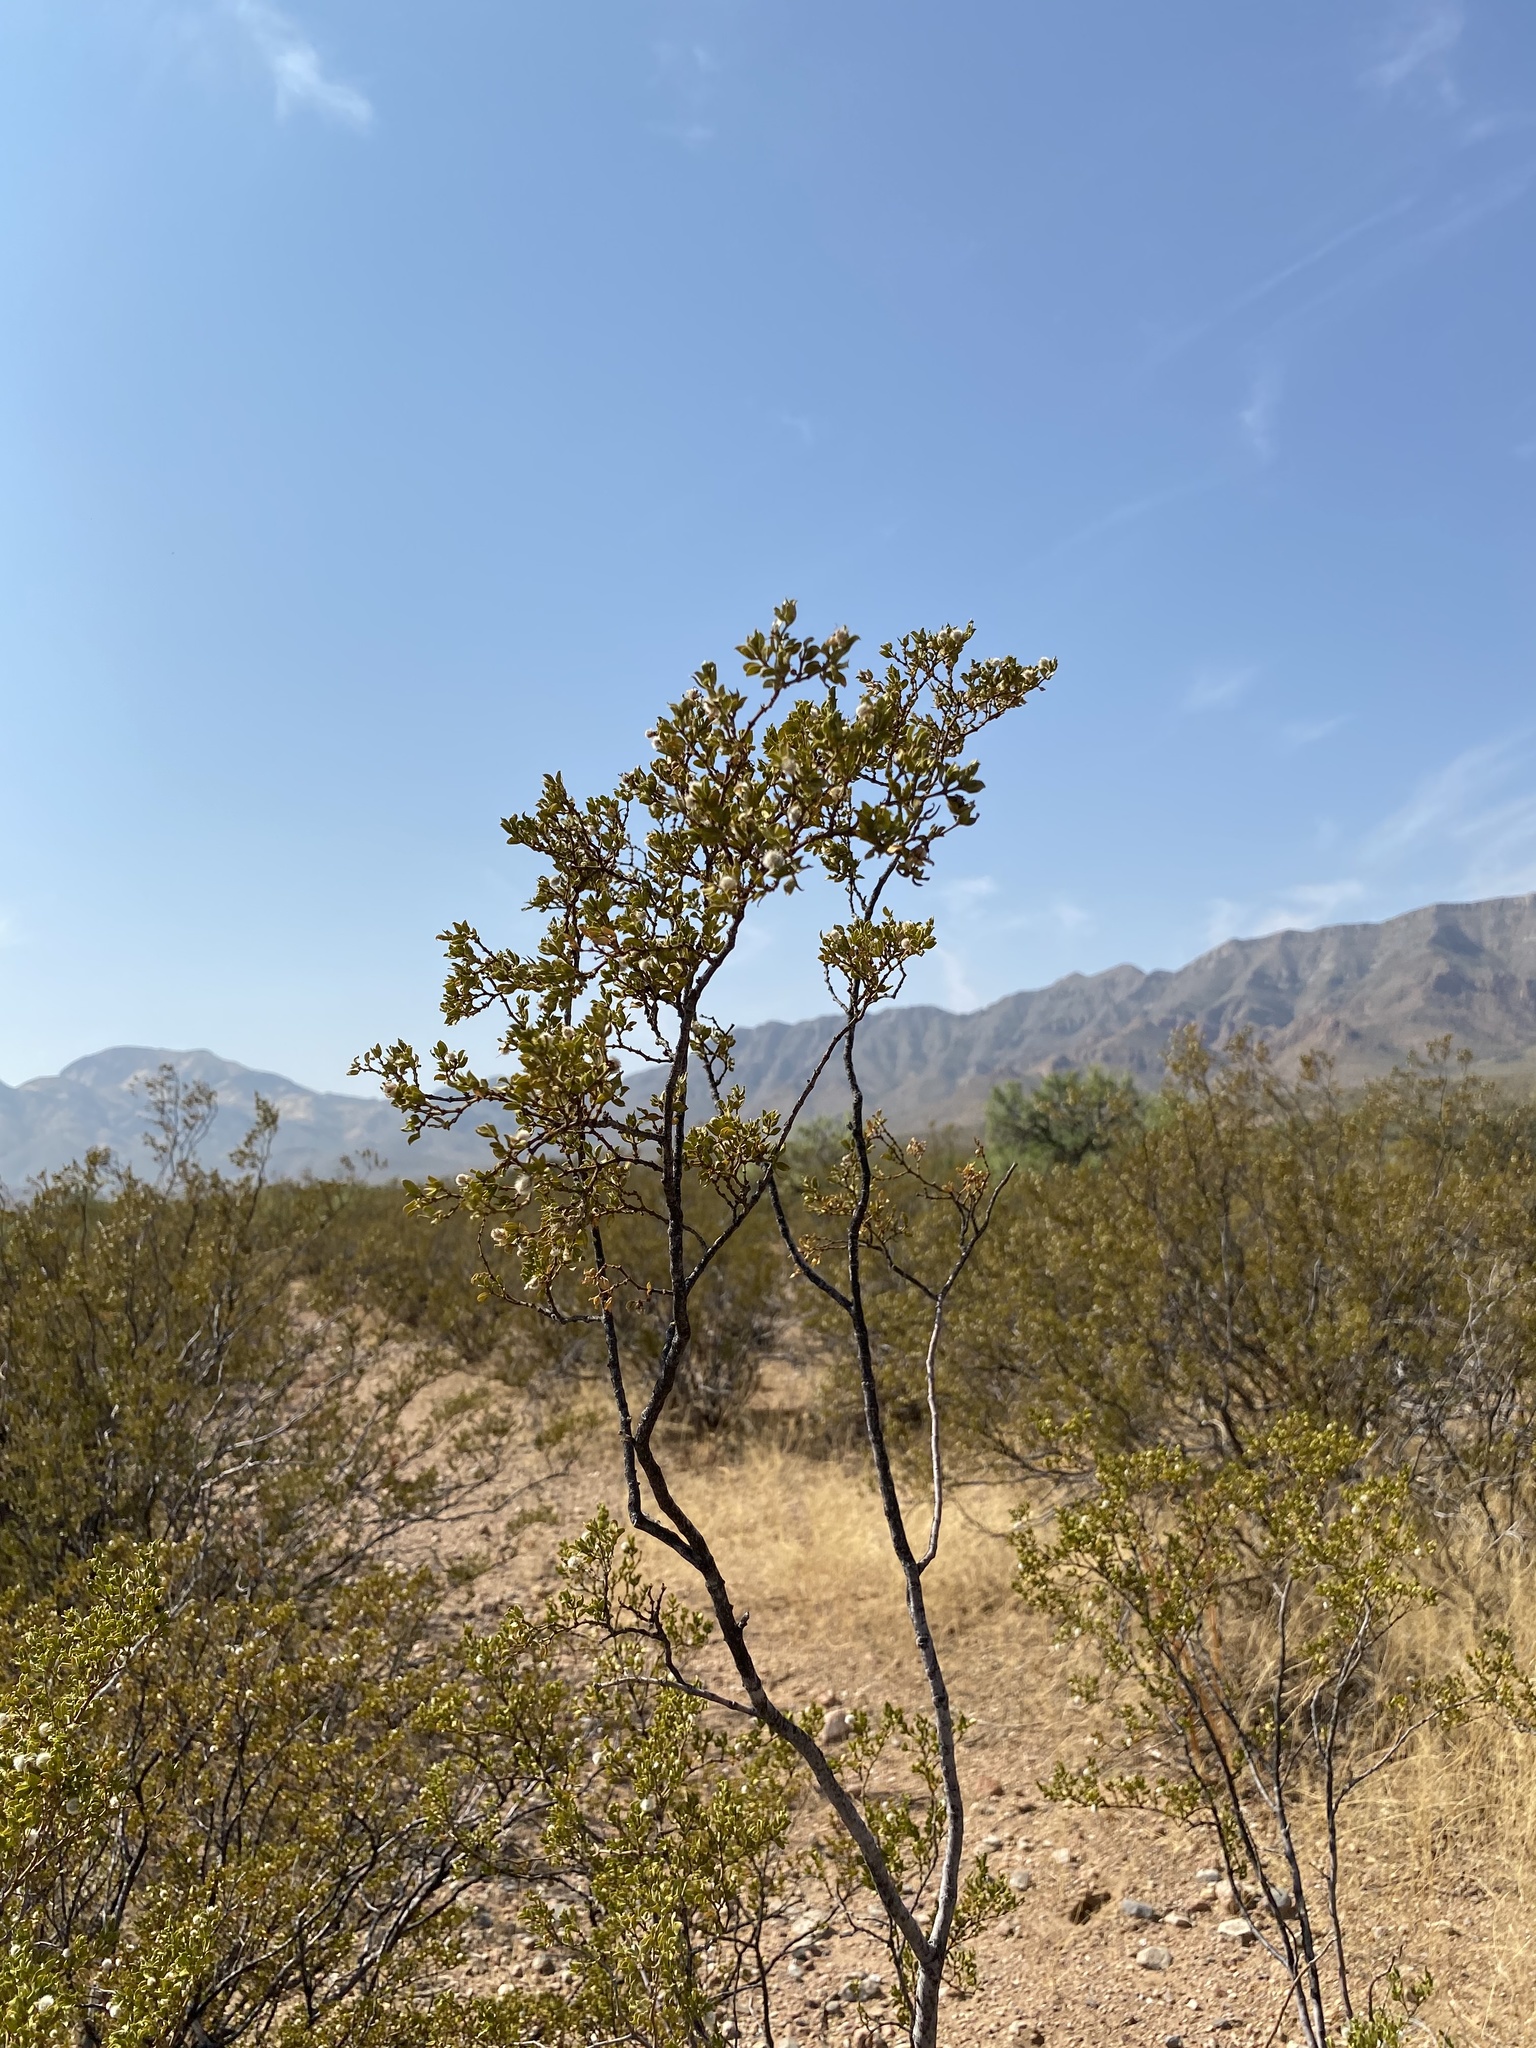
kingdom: Plantae
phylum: Tracheophyta
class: Magnoliopsida
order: Zygophyllales
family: Zygophyllaceae
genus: Larrea
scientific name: Larrea tridentata
